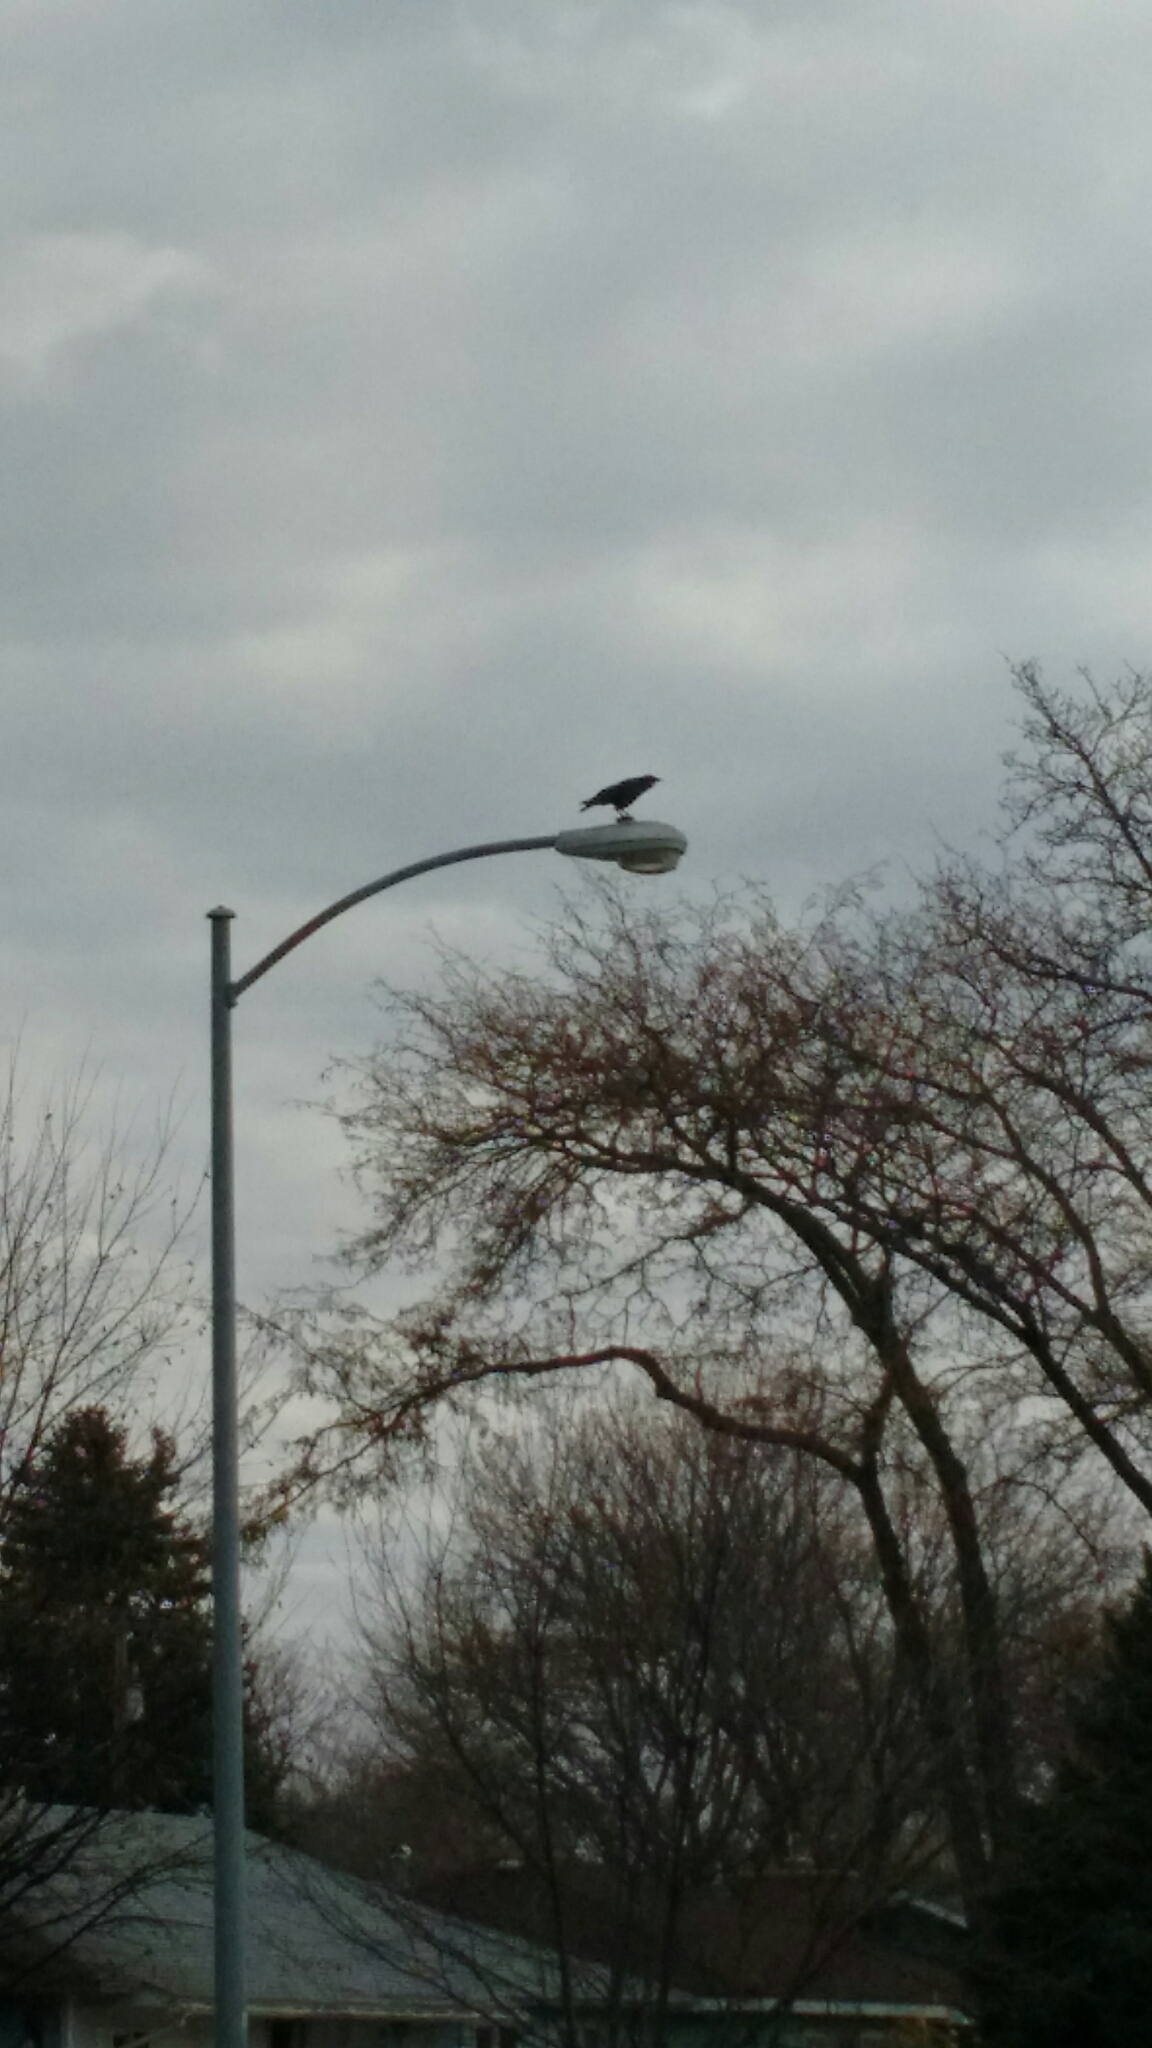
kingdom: Animalia
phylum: Chordata
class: Aves
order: Passeriformes
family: Corvidae
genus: Corvus
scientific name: Corvus brachyrhynchos
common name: American crow
